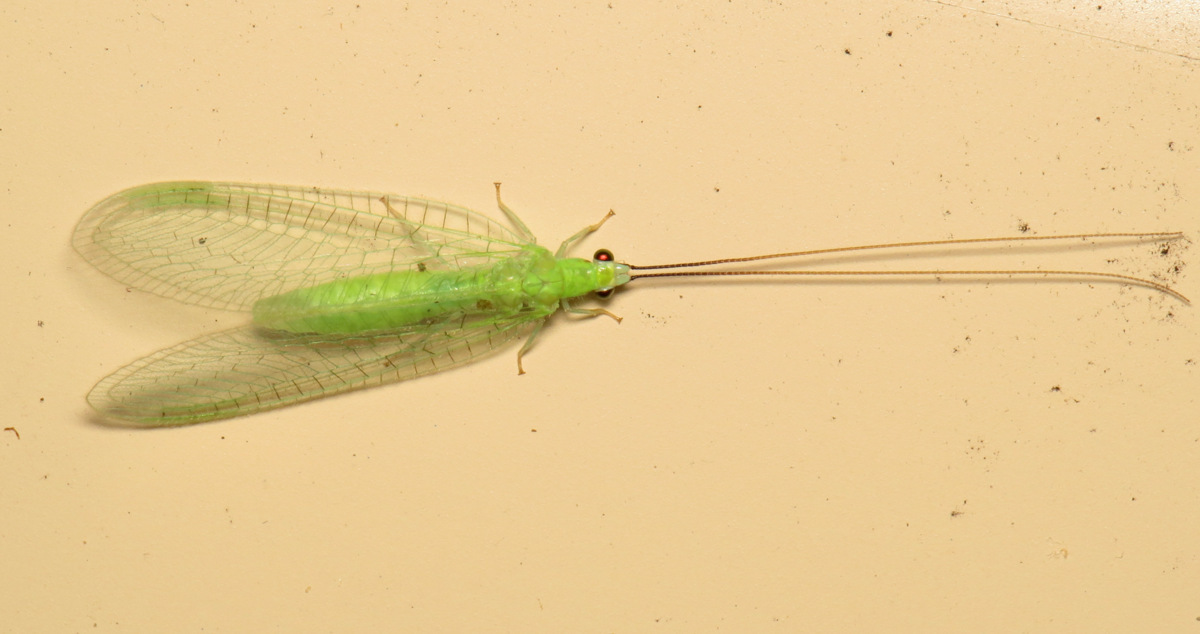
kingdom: Animalia
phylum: Arthropoda
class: Insecta
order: Neuroptera
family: Chrysopidae
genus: Ceraeochrysa
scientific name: Ceraeochrysa lineaticornis
